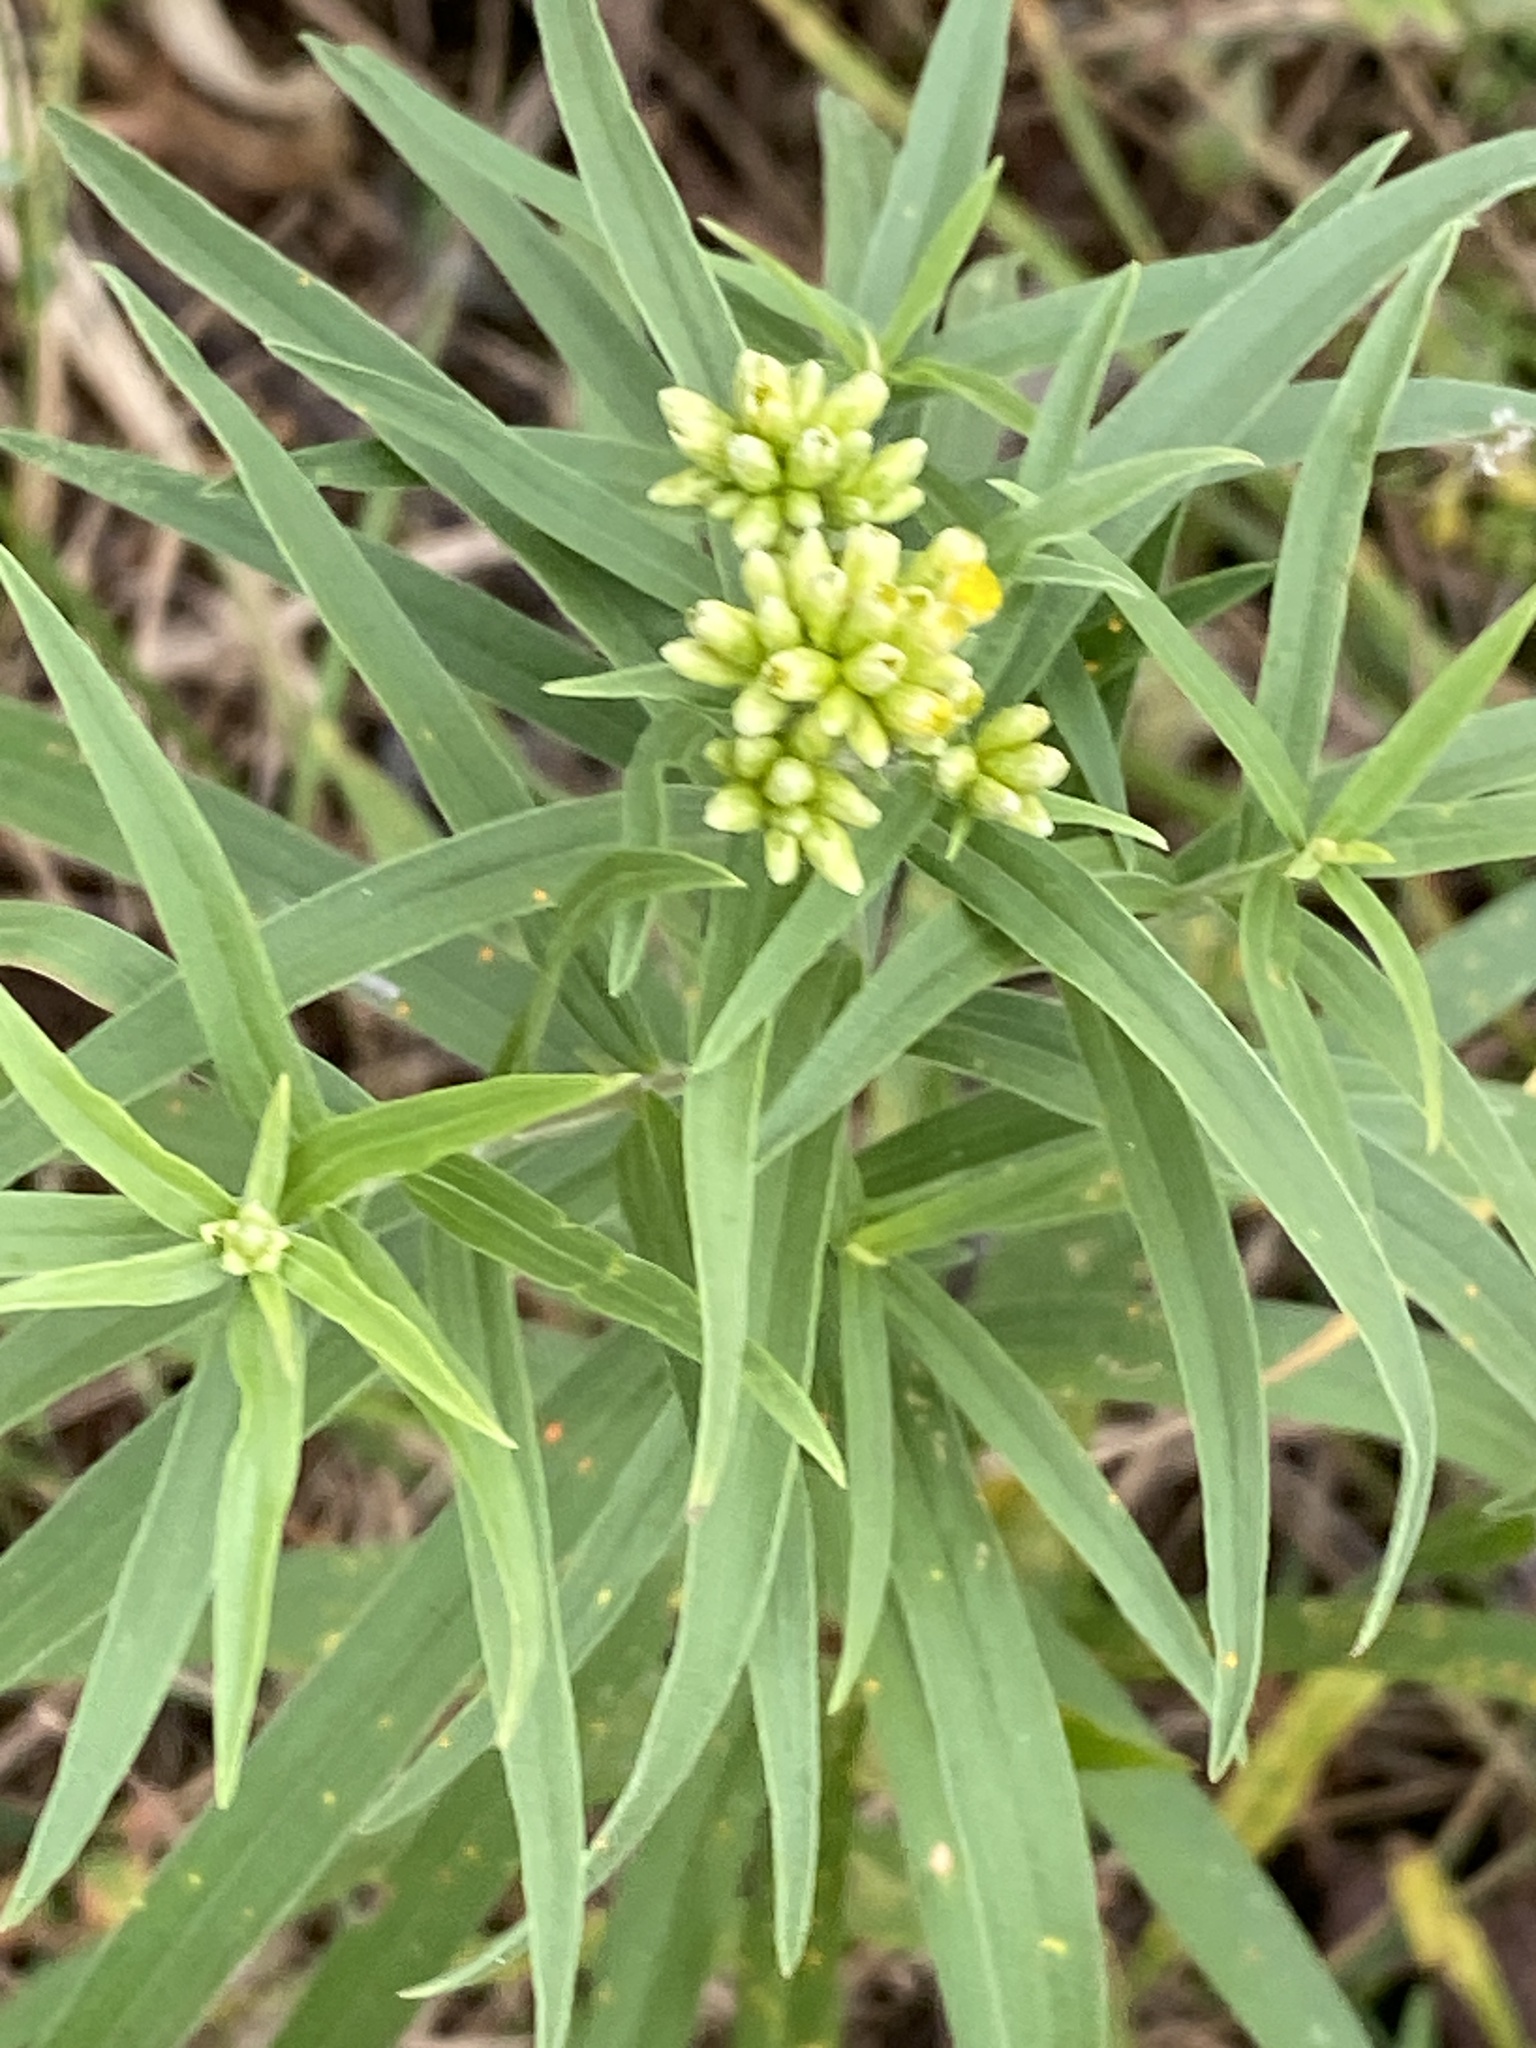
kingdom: Plantae
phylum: Tracheophyta
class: Magnoliopsida
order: Asterales
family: Asteraceae
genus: Euthamia
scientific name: Euthamia graminifolia
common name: Common goldentop
